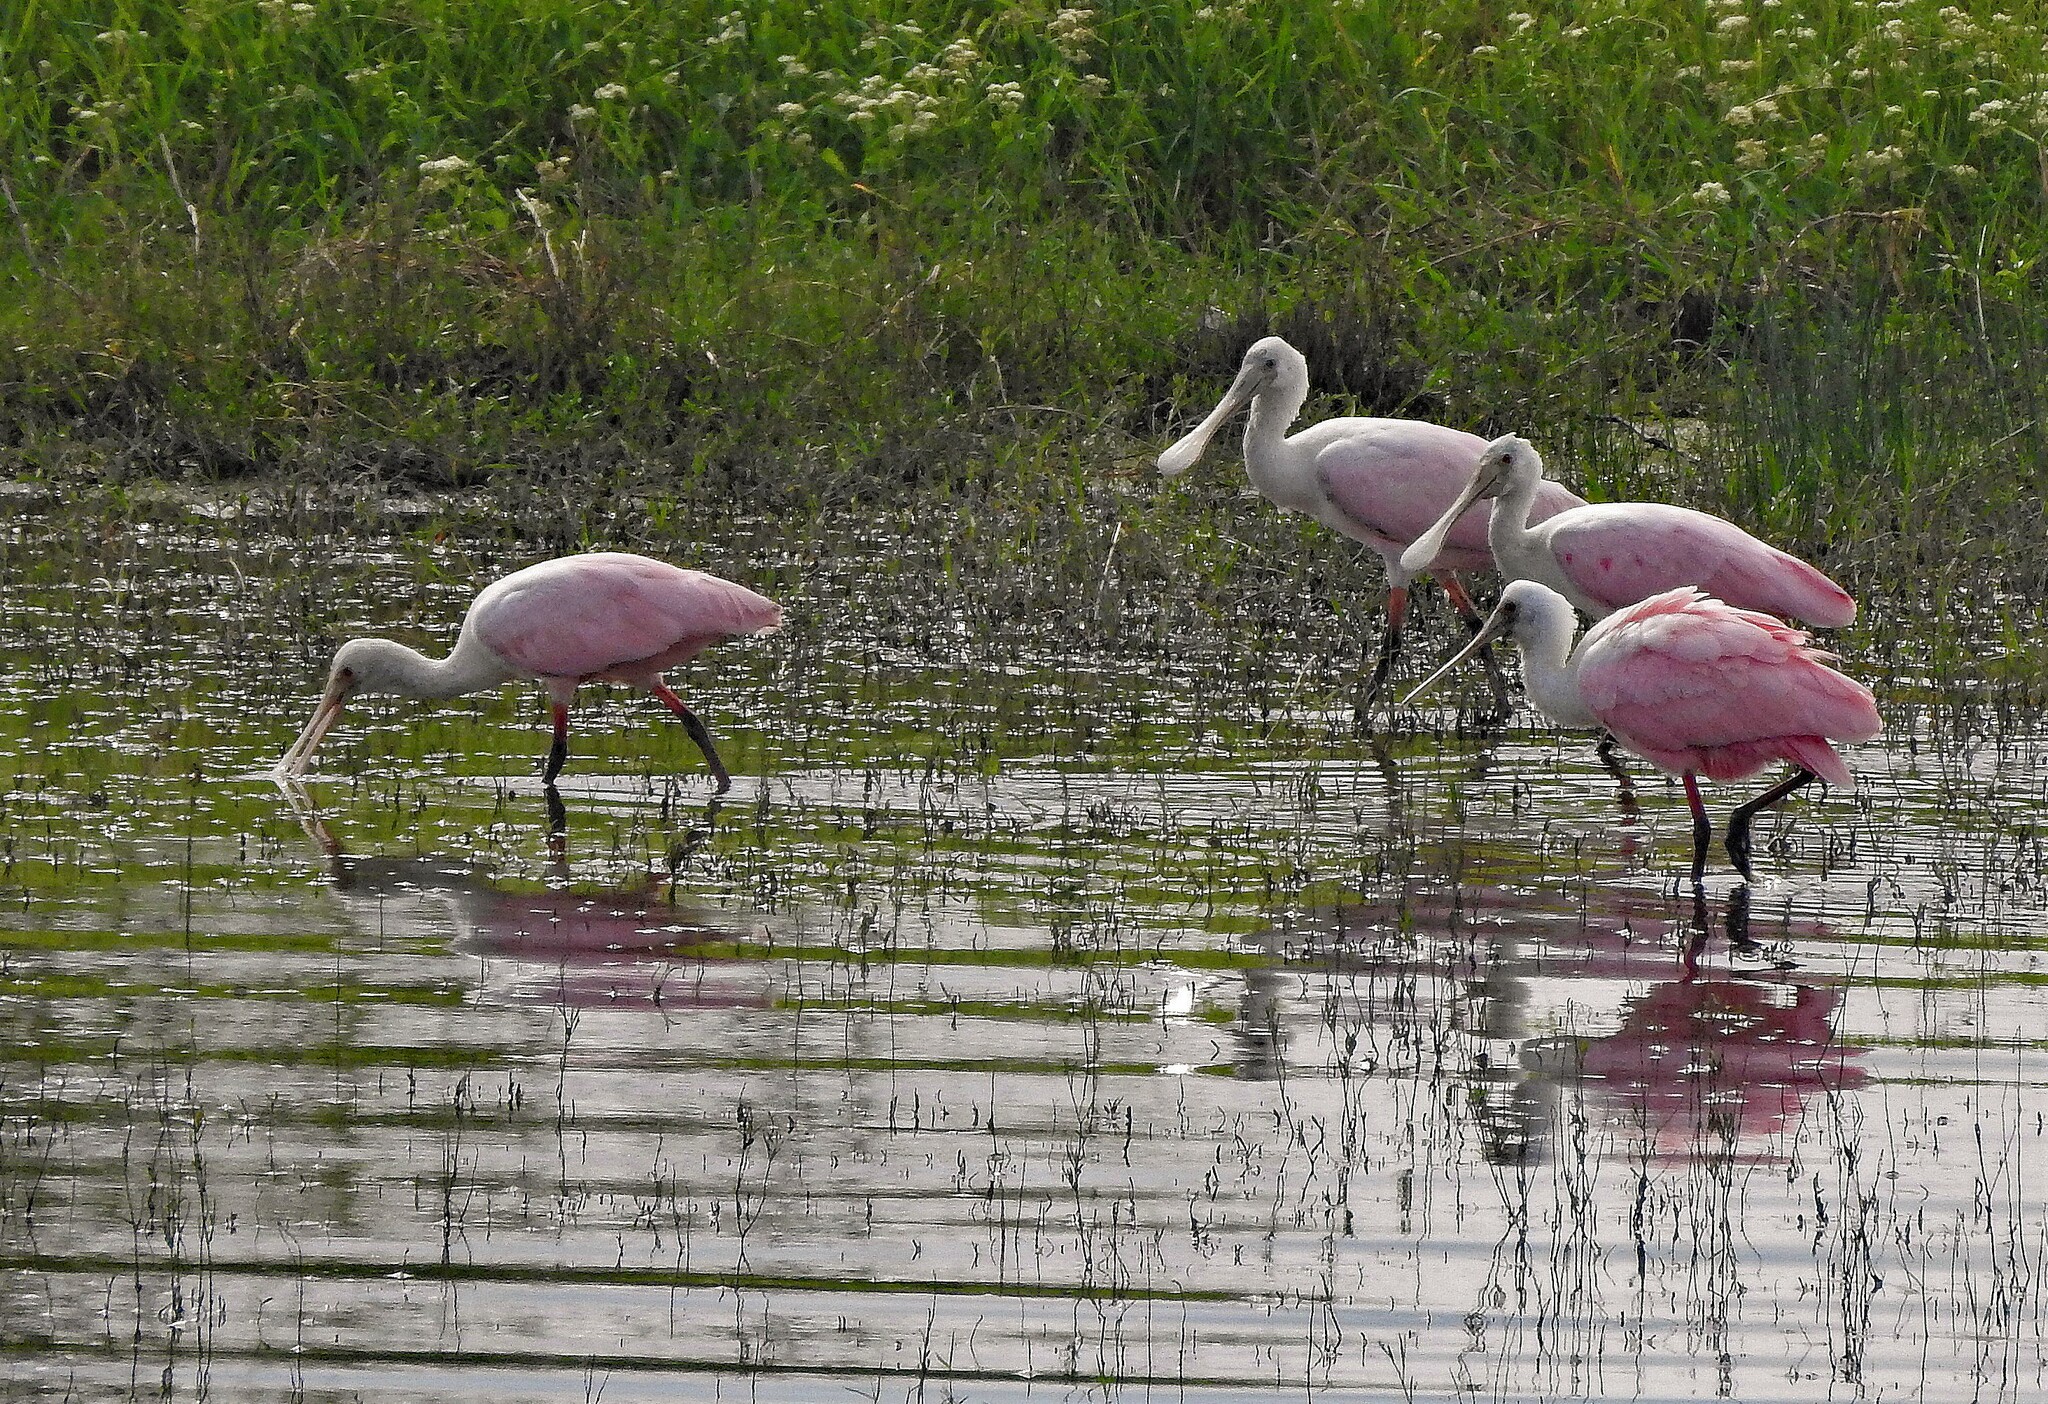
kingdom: Animalia
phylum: Chordata
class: Aves
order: Pelecaniformes
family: Threskiornithidae
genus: Platalea
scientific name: Platalea ajaja
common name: Roseate spoonbill
